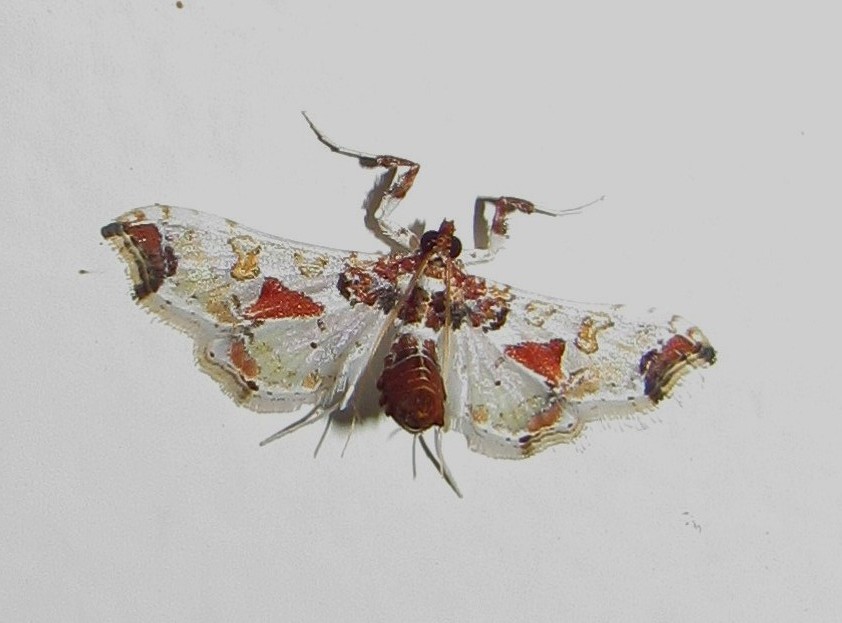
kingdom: Animalia
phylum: Arthropoda
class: Insecta
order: Lepidoptera
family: Crambidae
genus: Neoleucinodes
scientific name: Neoleucinodes elegantalis
